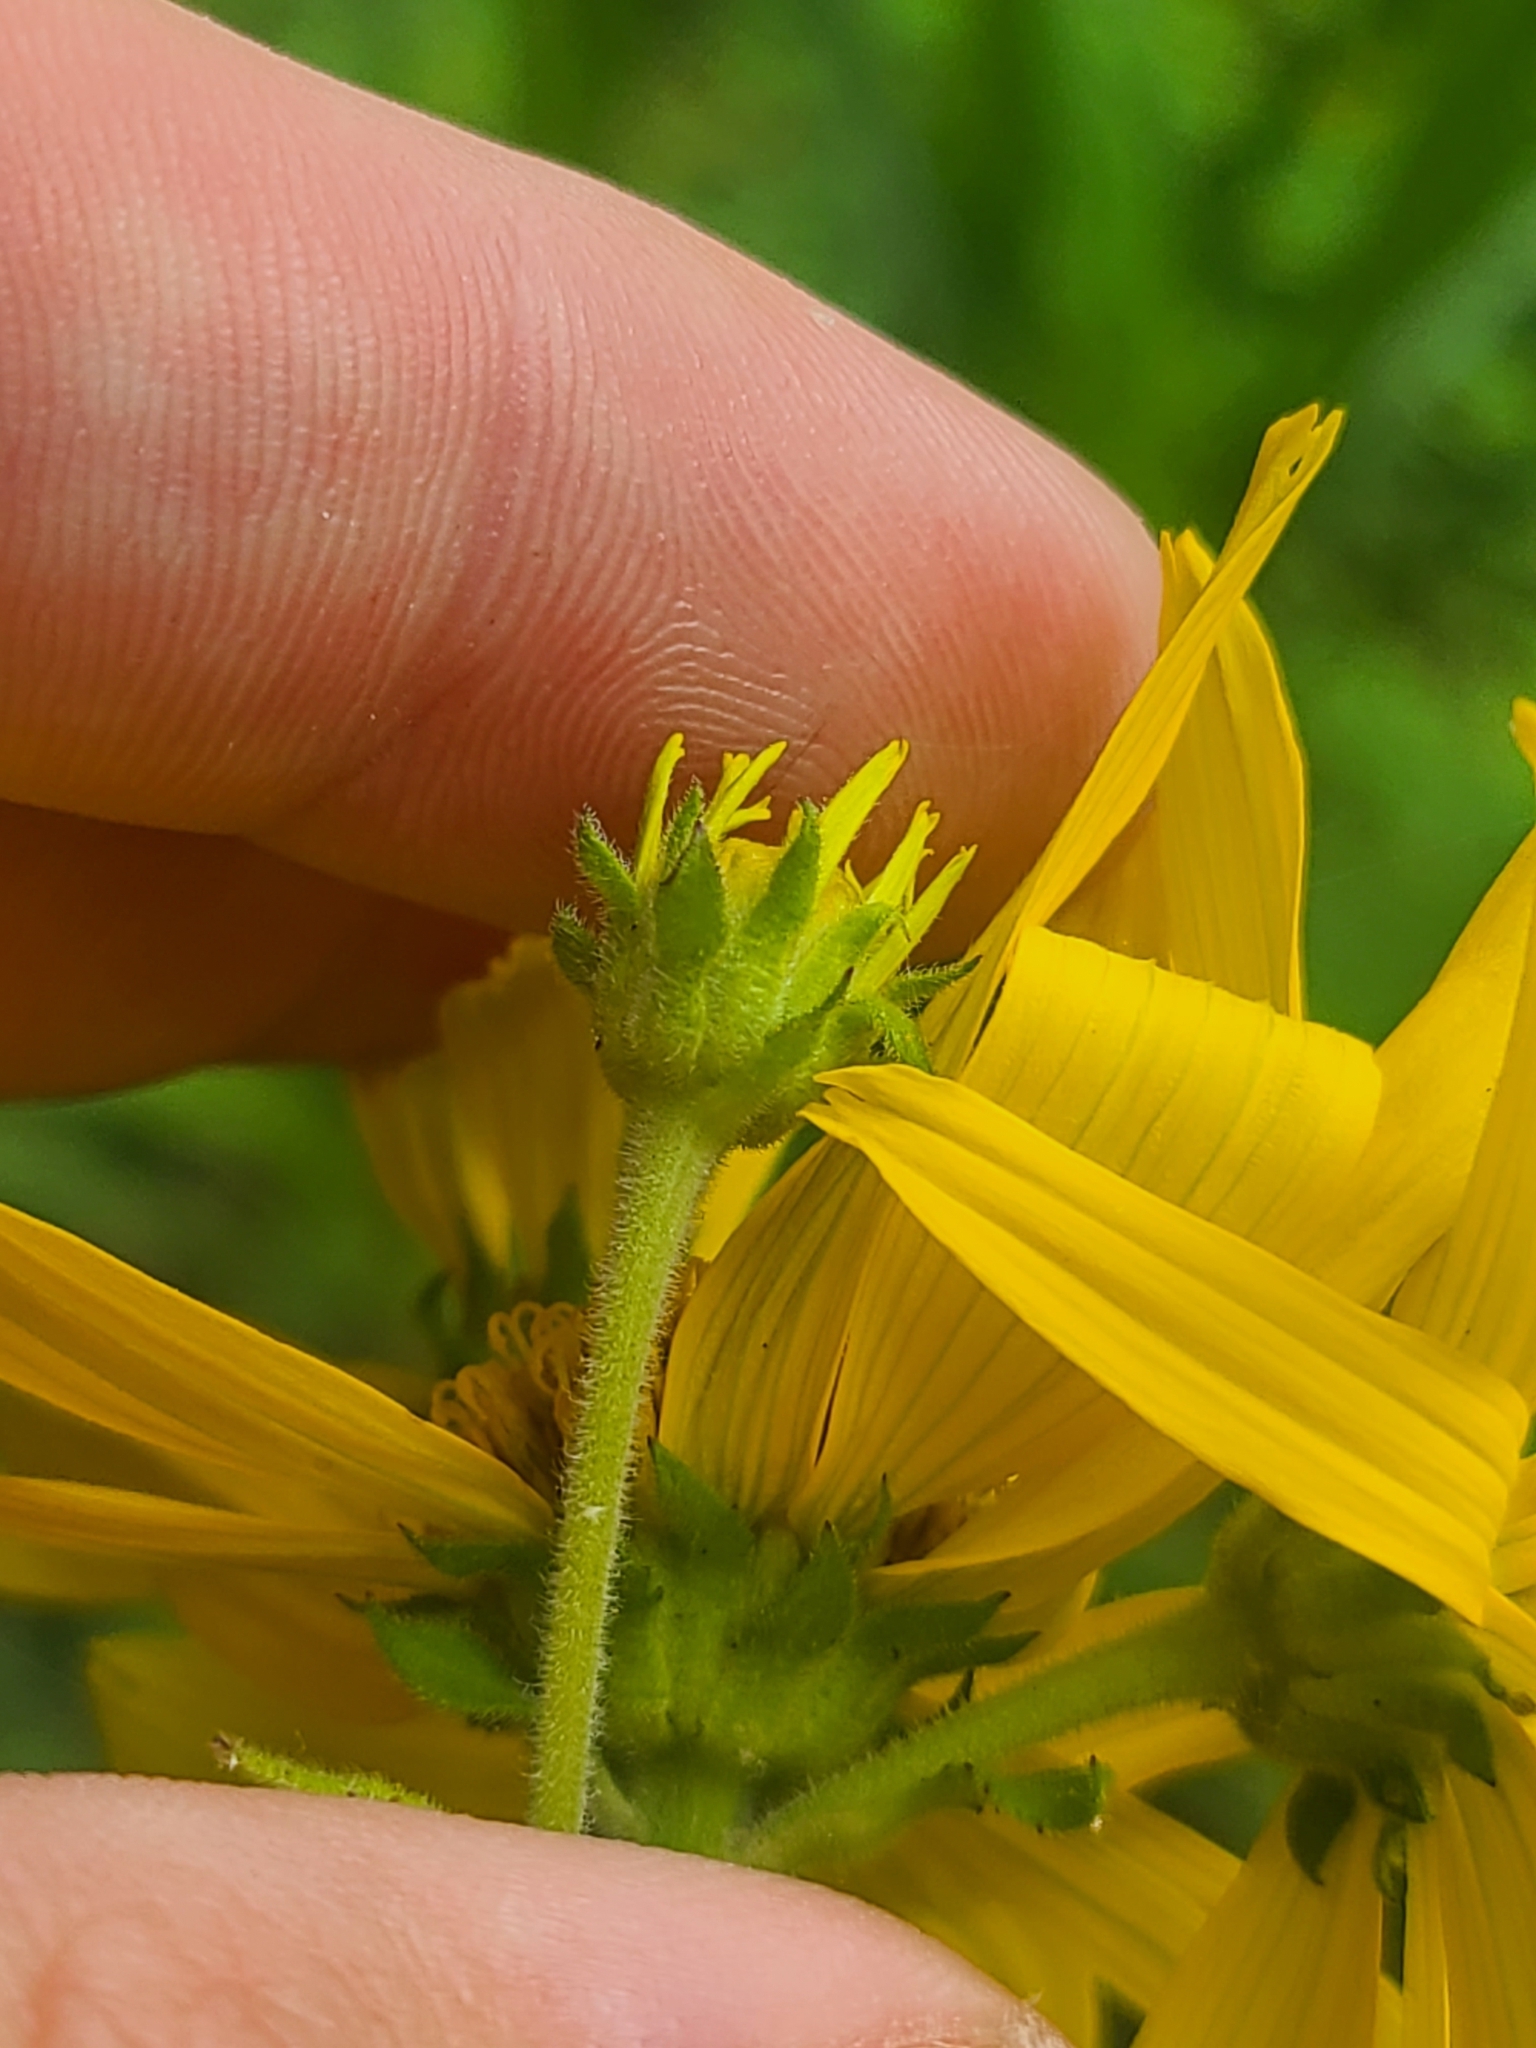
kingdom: Plantae
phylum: Tracheophyta
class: Magnoliopsida
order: Asterales
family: Asteraceae
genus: Verbesina
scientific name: Verbesina helianthoides
